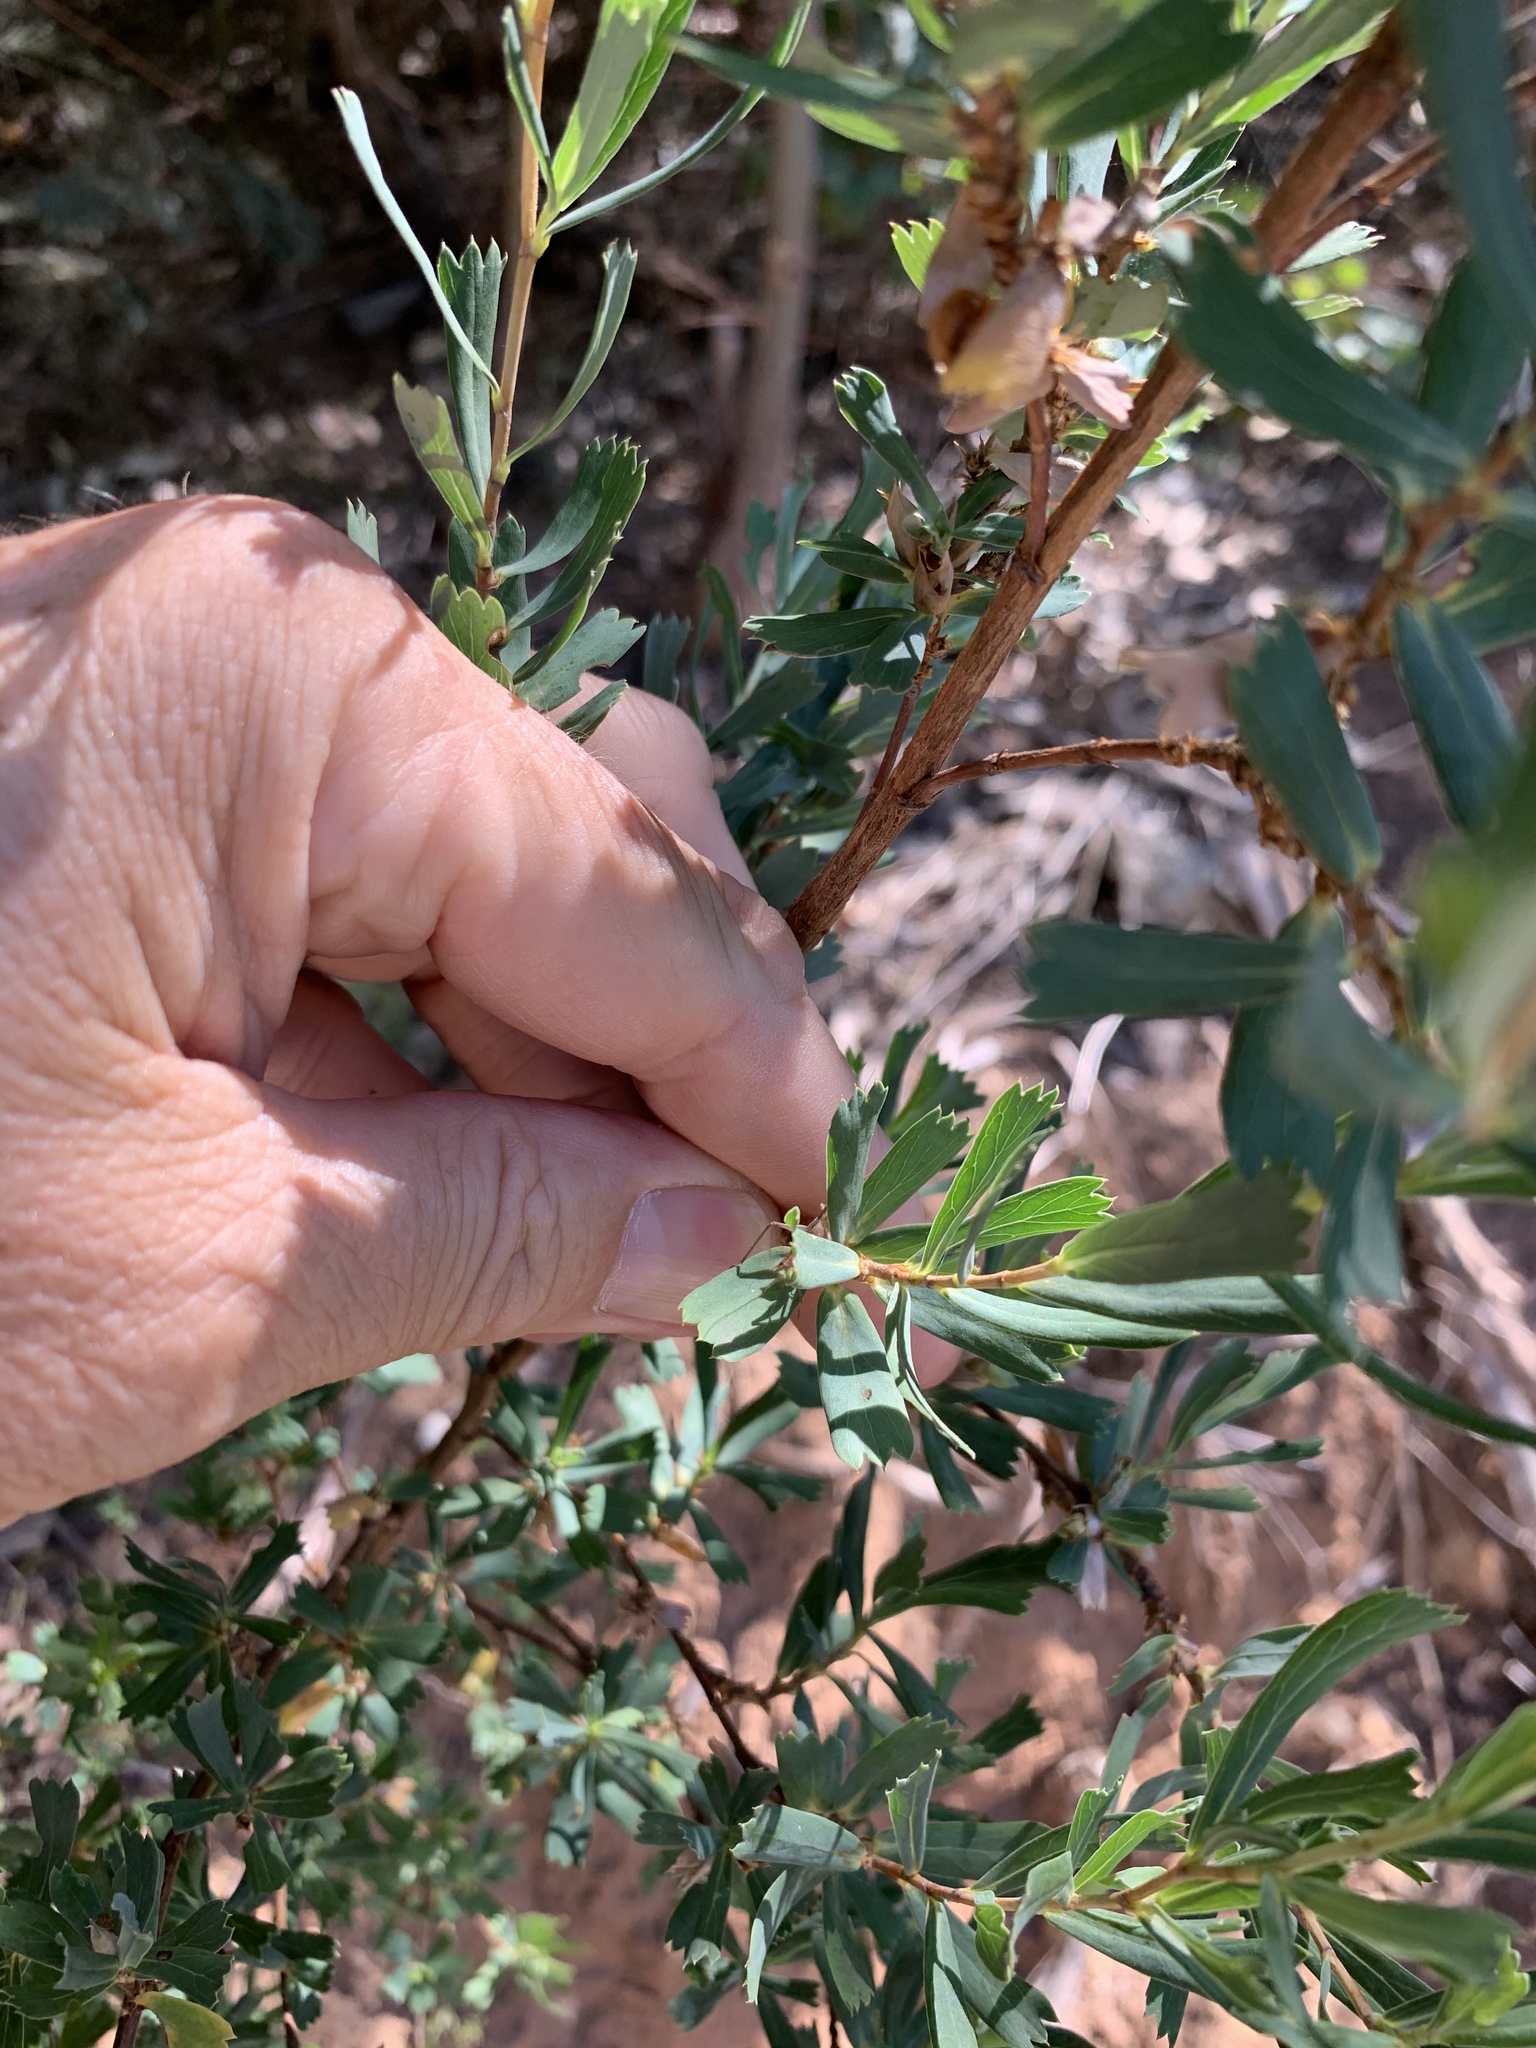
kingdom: Plantae
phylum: Tracheophyta
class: Magnoliopsida
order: Rosales
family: Rosaceae
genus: Cliffortia
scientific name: Cliffortia cuneata
